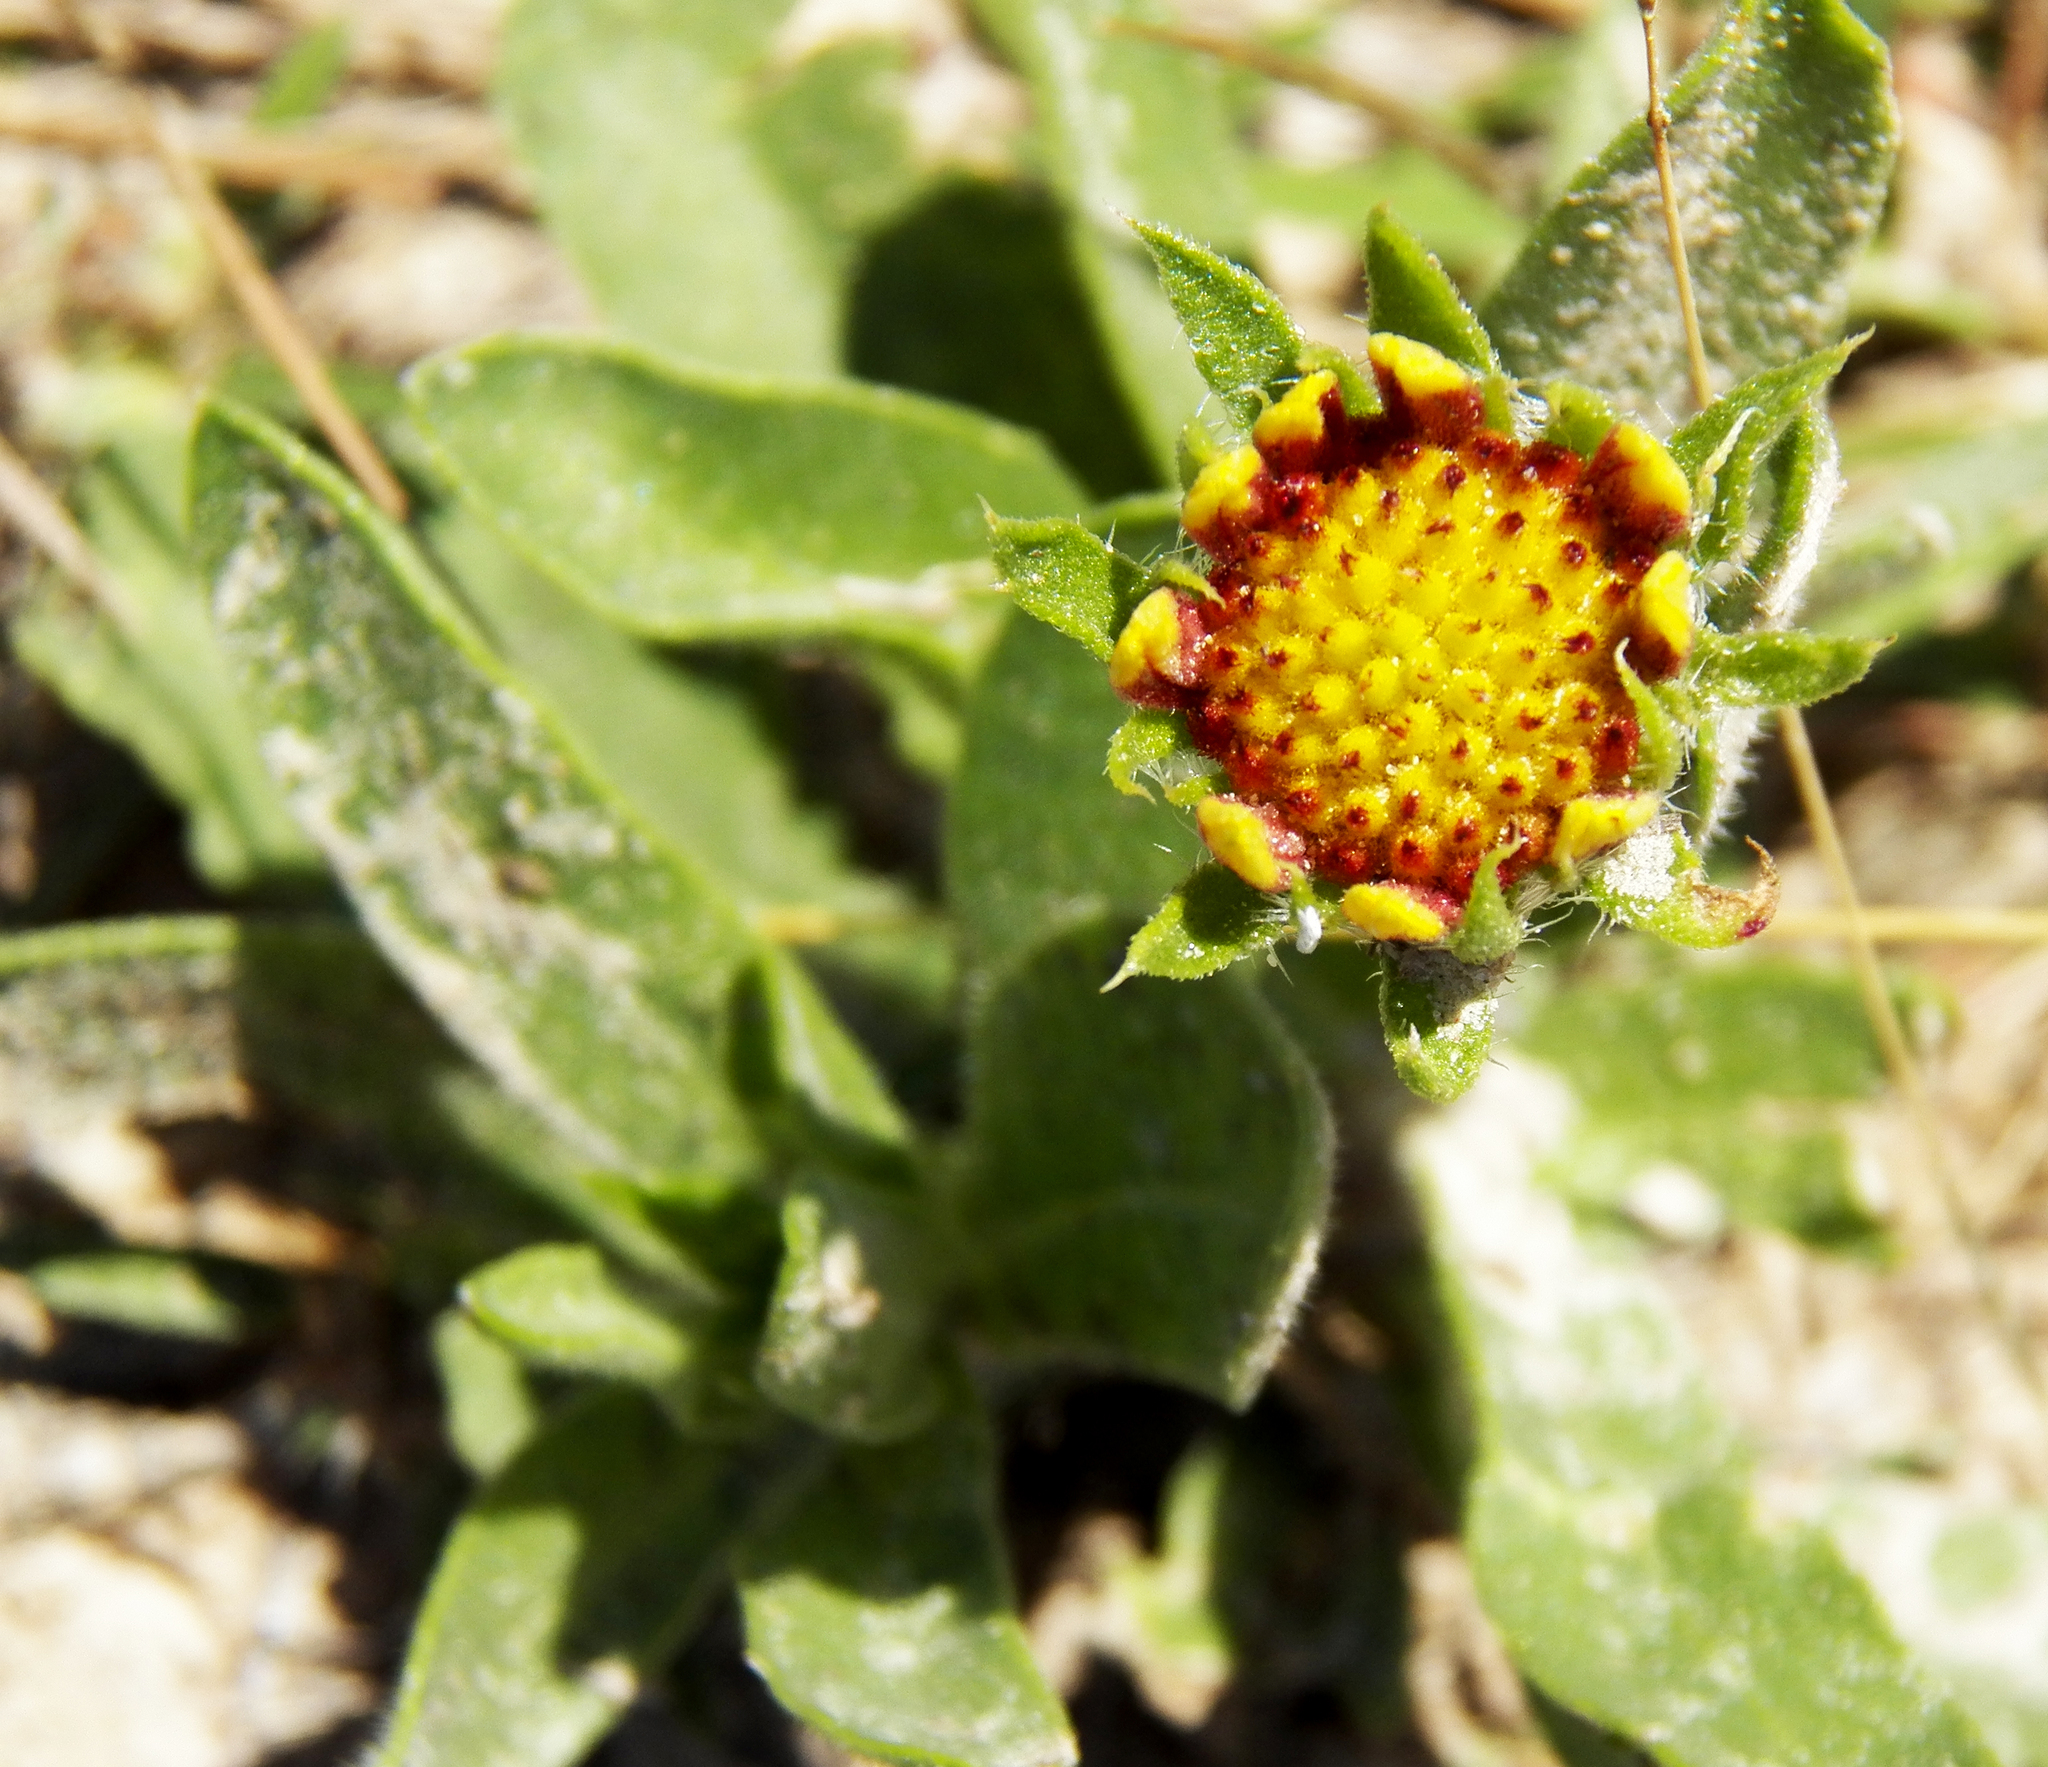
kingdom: Plantae
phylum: Tracheophyta
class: Magnoliopsida
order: Asterales
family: Asteraceae
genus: Gaillardia
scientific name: Gaillardia pulchella
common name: Firewheel
